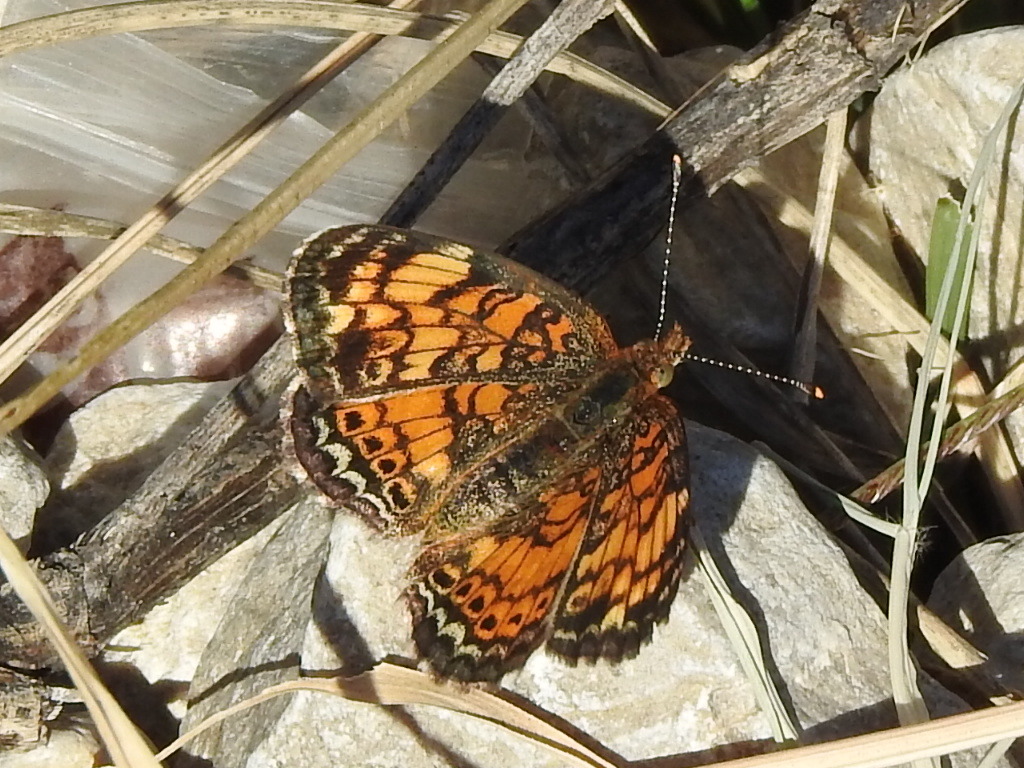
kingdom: Animalia
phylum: Arthropoda
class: Insecta
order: Lepidoptera
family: Nymphalidae
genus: Phyciodes
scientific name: Phyciodes tharos
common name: Pearl crescent
